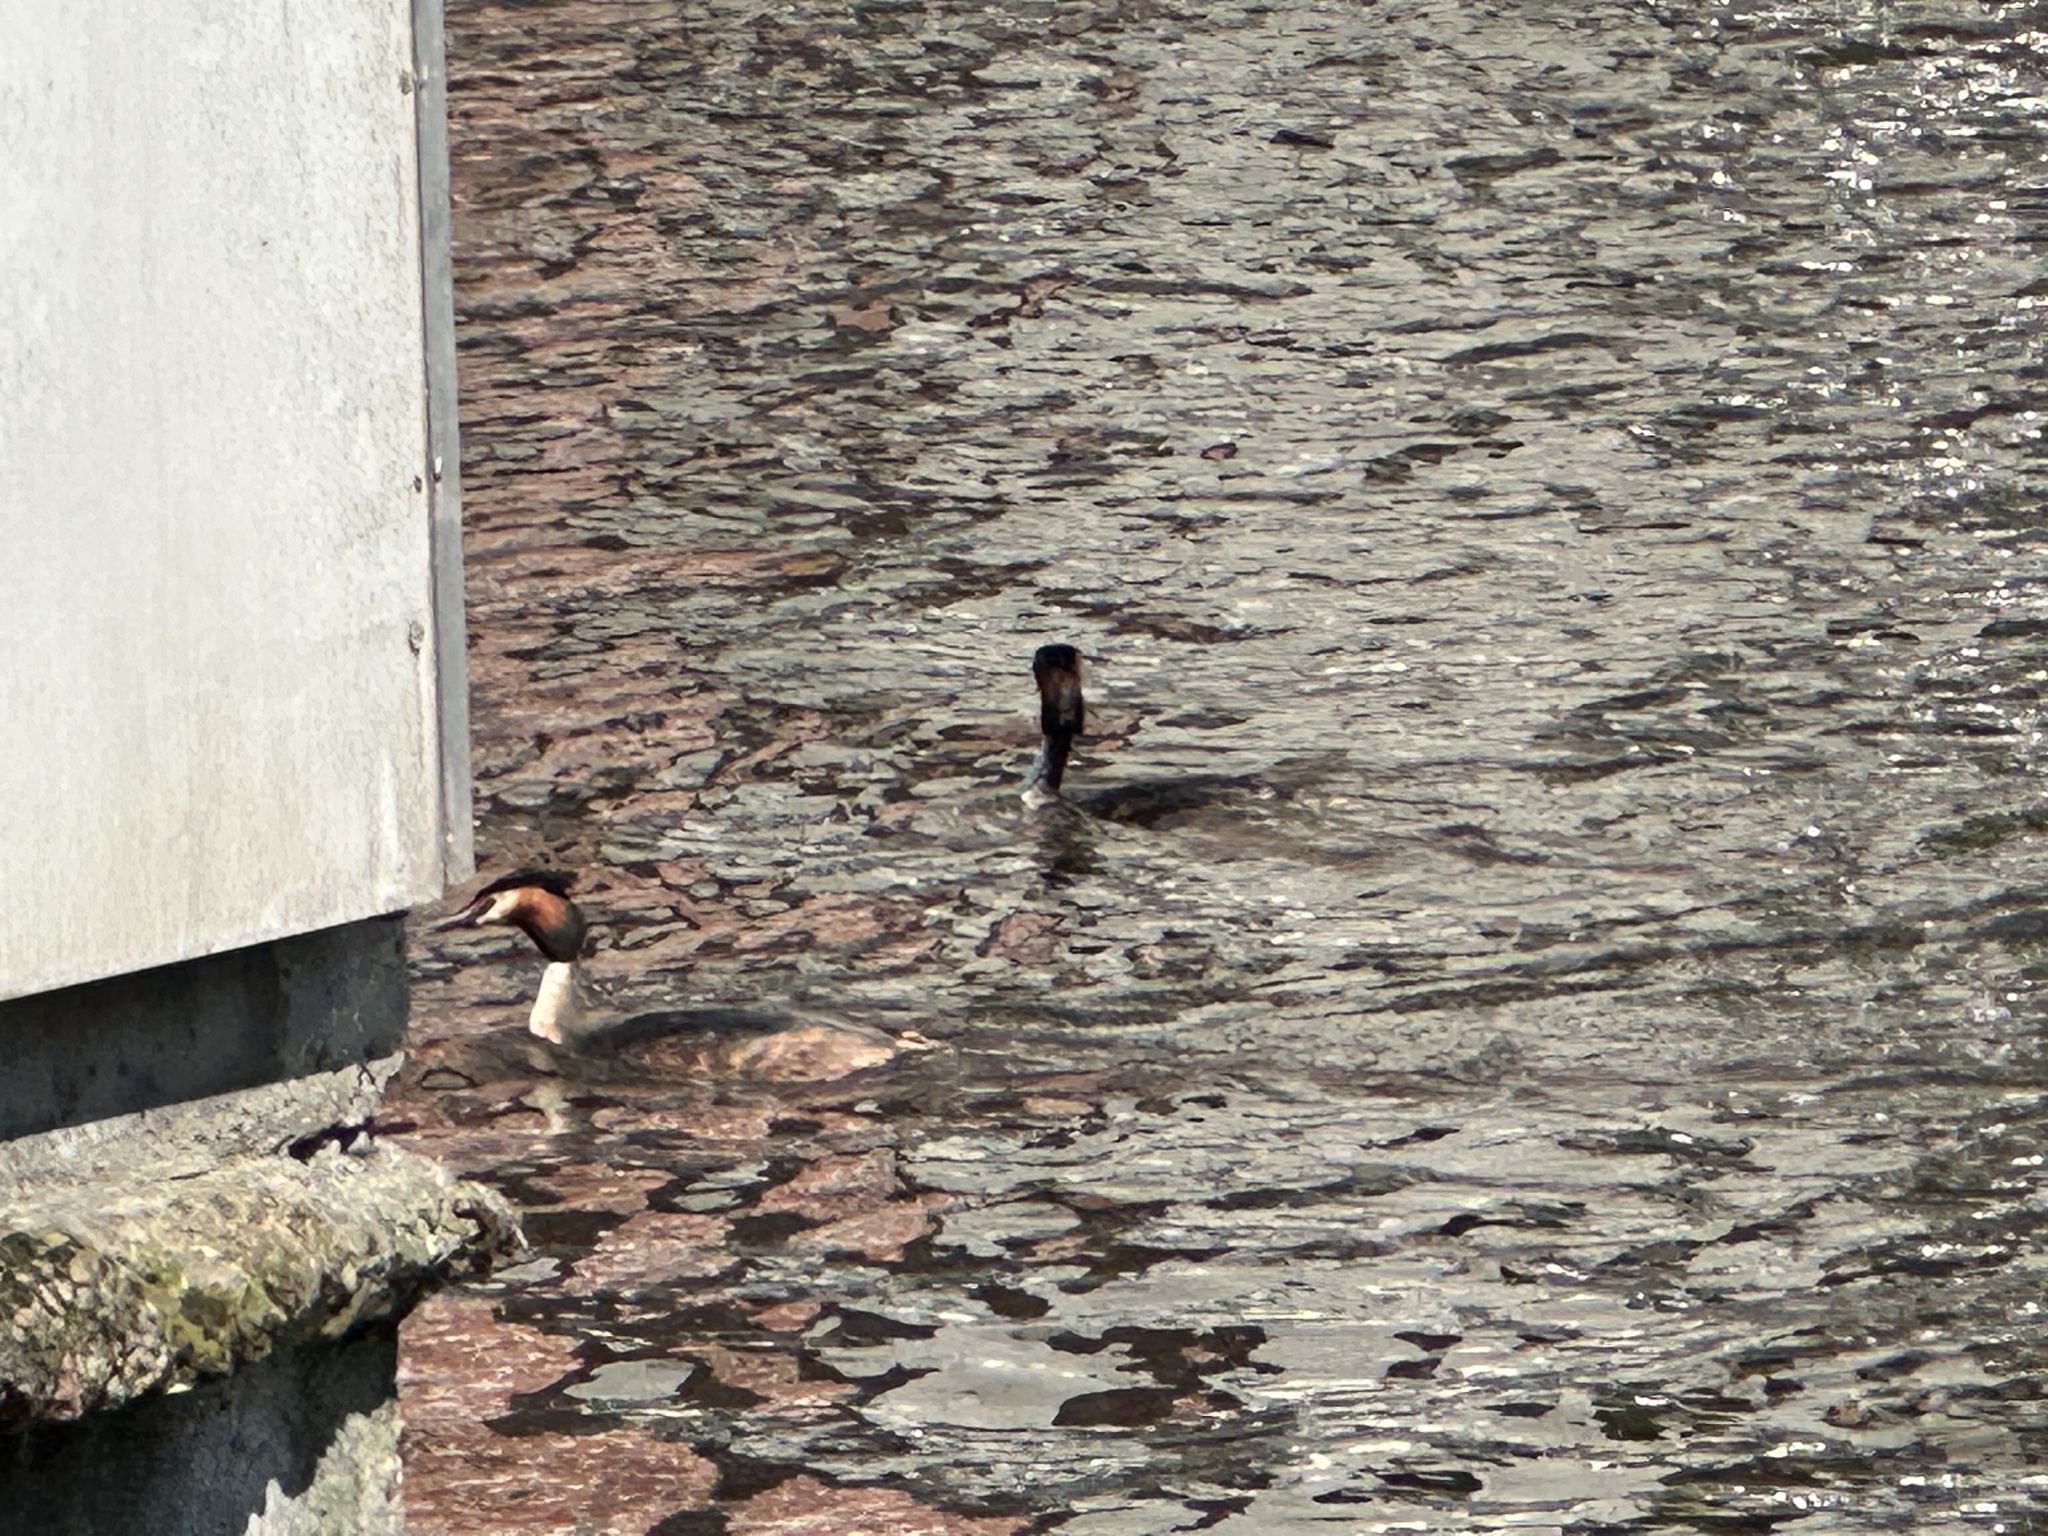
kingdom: Animalia
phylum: Chordata
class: Aves
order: Podicipediformes
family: Podicipedidae
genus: Podiceps
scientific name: Podiceps cristatus
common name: Great crested grebe
